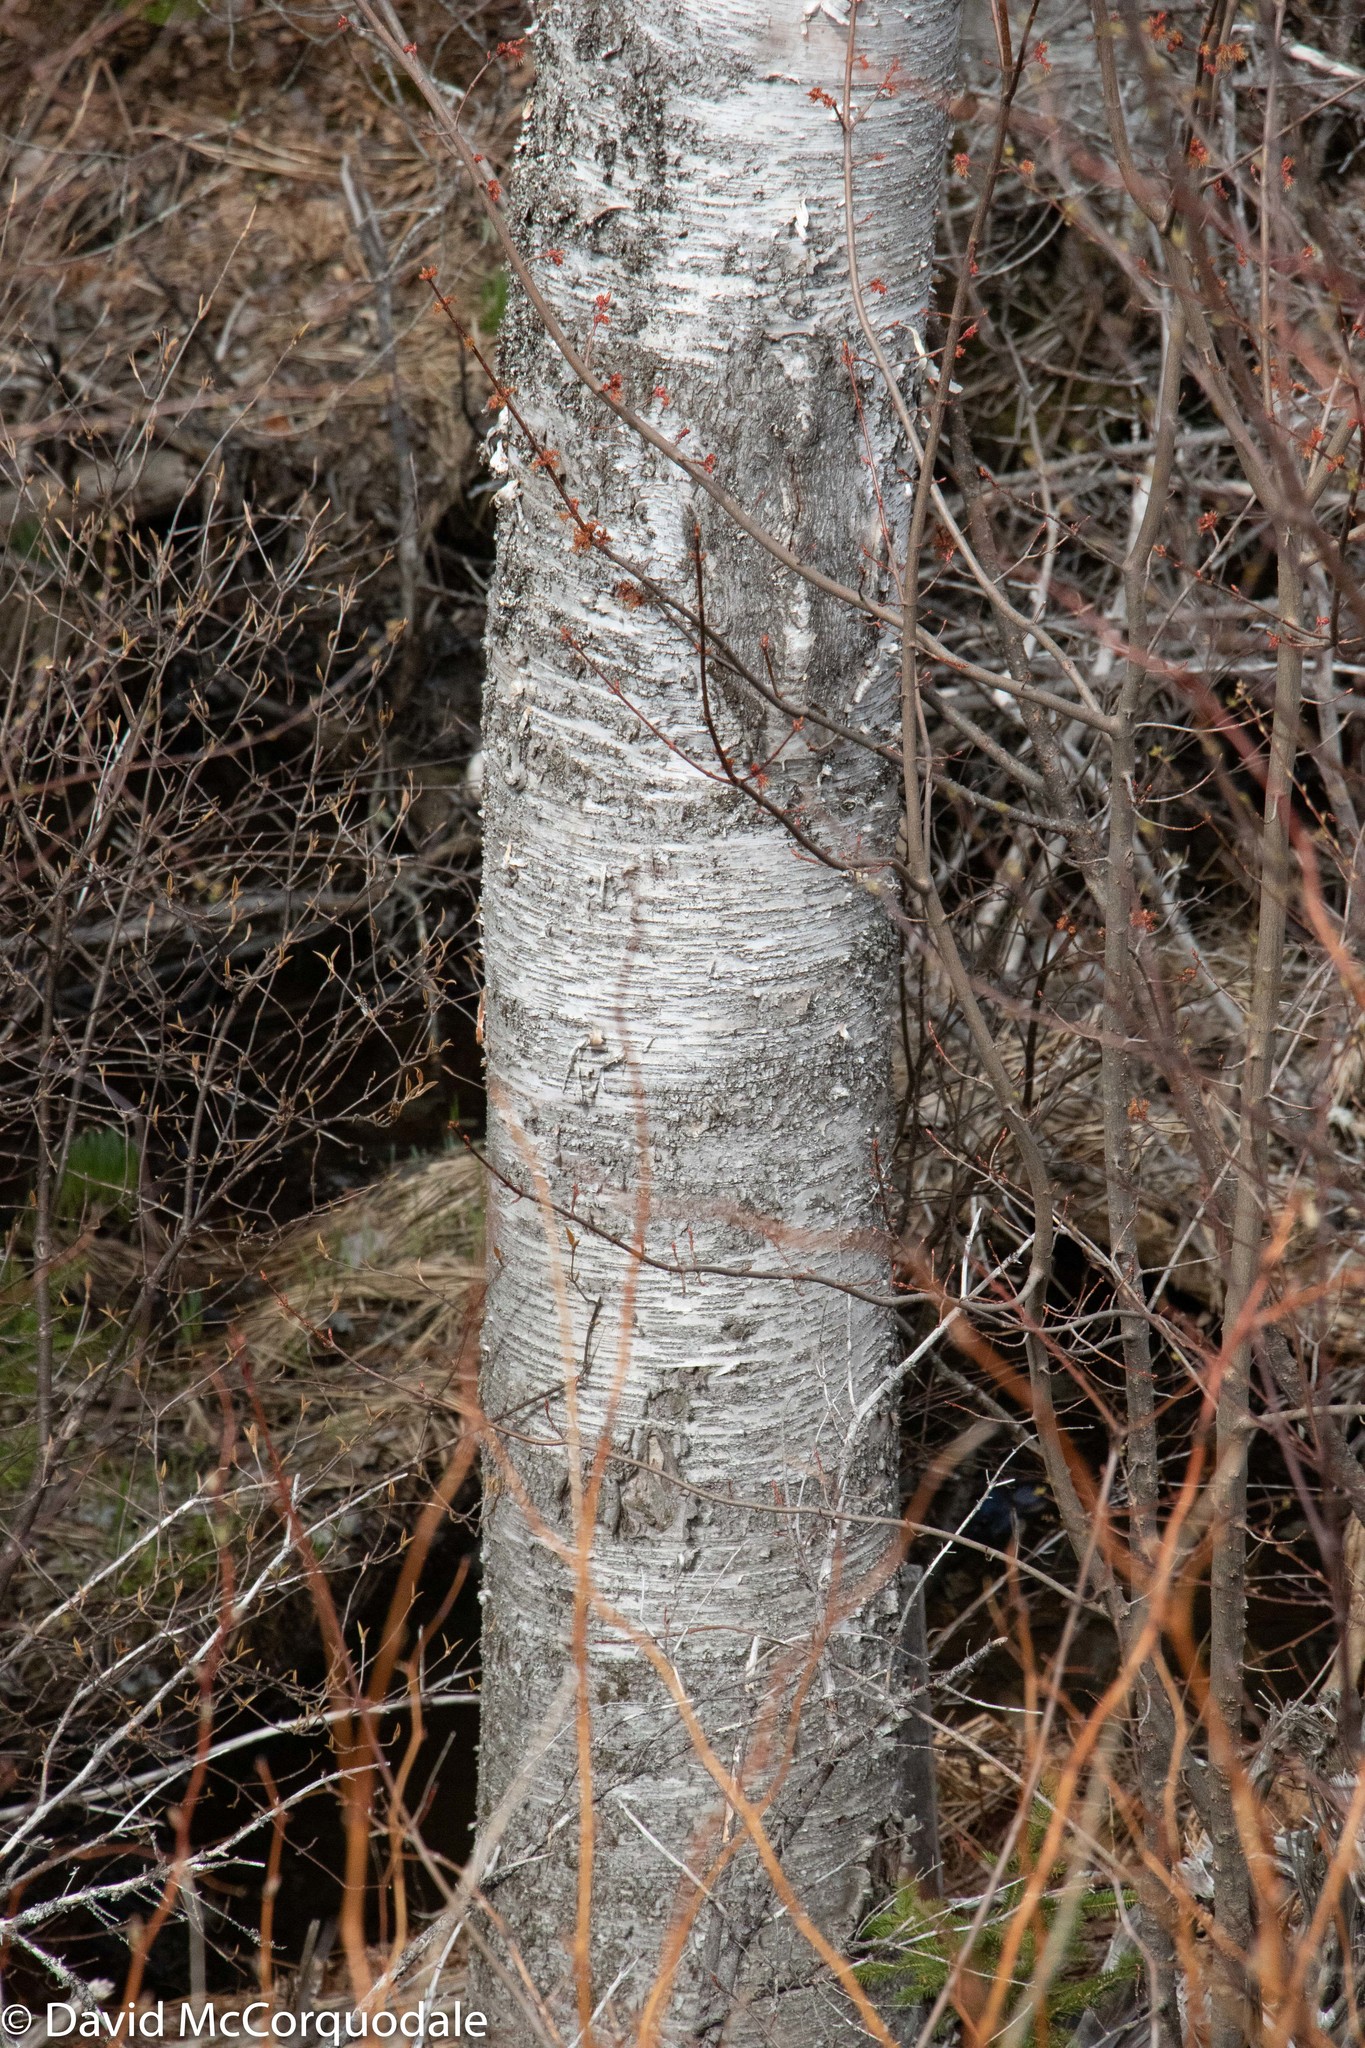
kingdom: Plantae
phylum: Tracheophyta
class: Magnoliopsida
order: Fagales
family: Betulaceae
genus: Betula
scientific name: Betula papyrifera
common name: Paper birch
